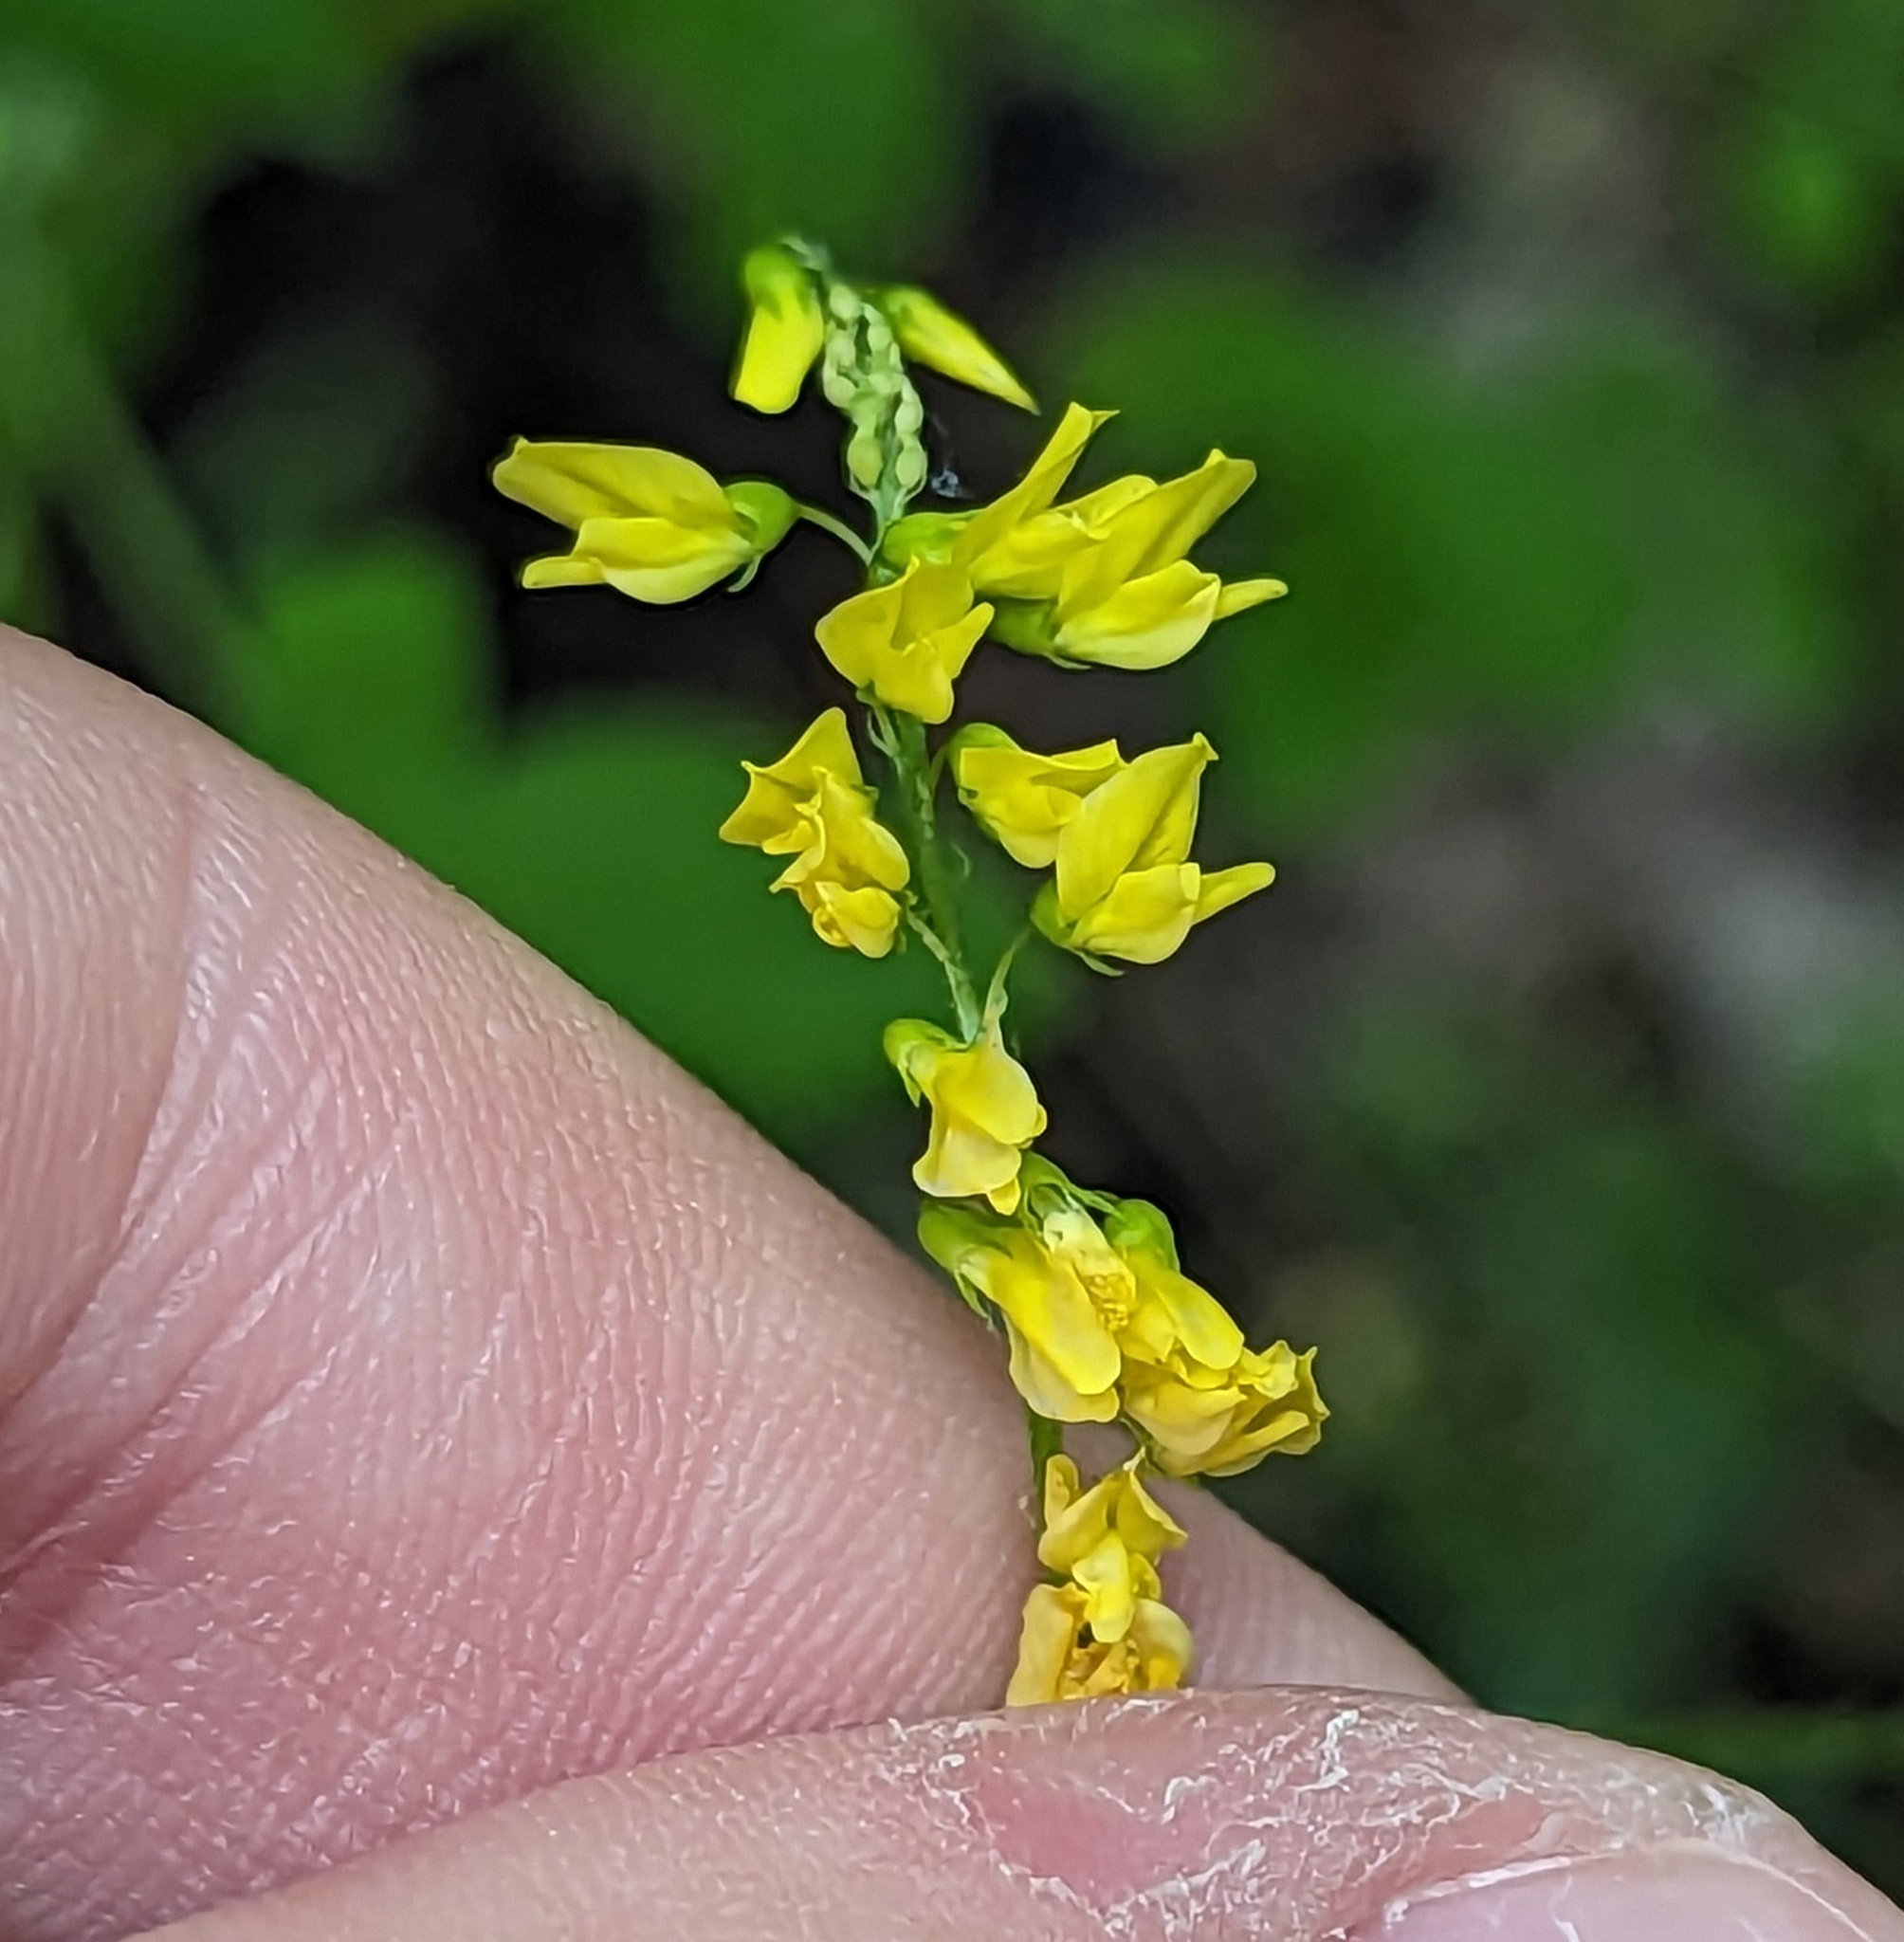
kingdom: Plantae
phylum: Tracheophyta
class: Magnoliopsida
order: Fabales
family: Fabaceae
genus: Melilotus
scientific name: Melilotus officinalis
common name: Sweetclover
